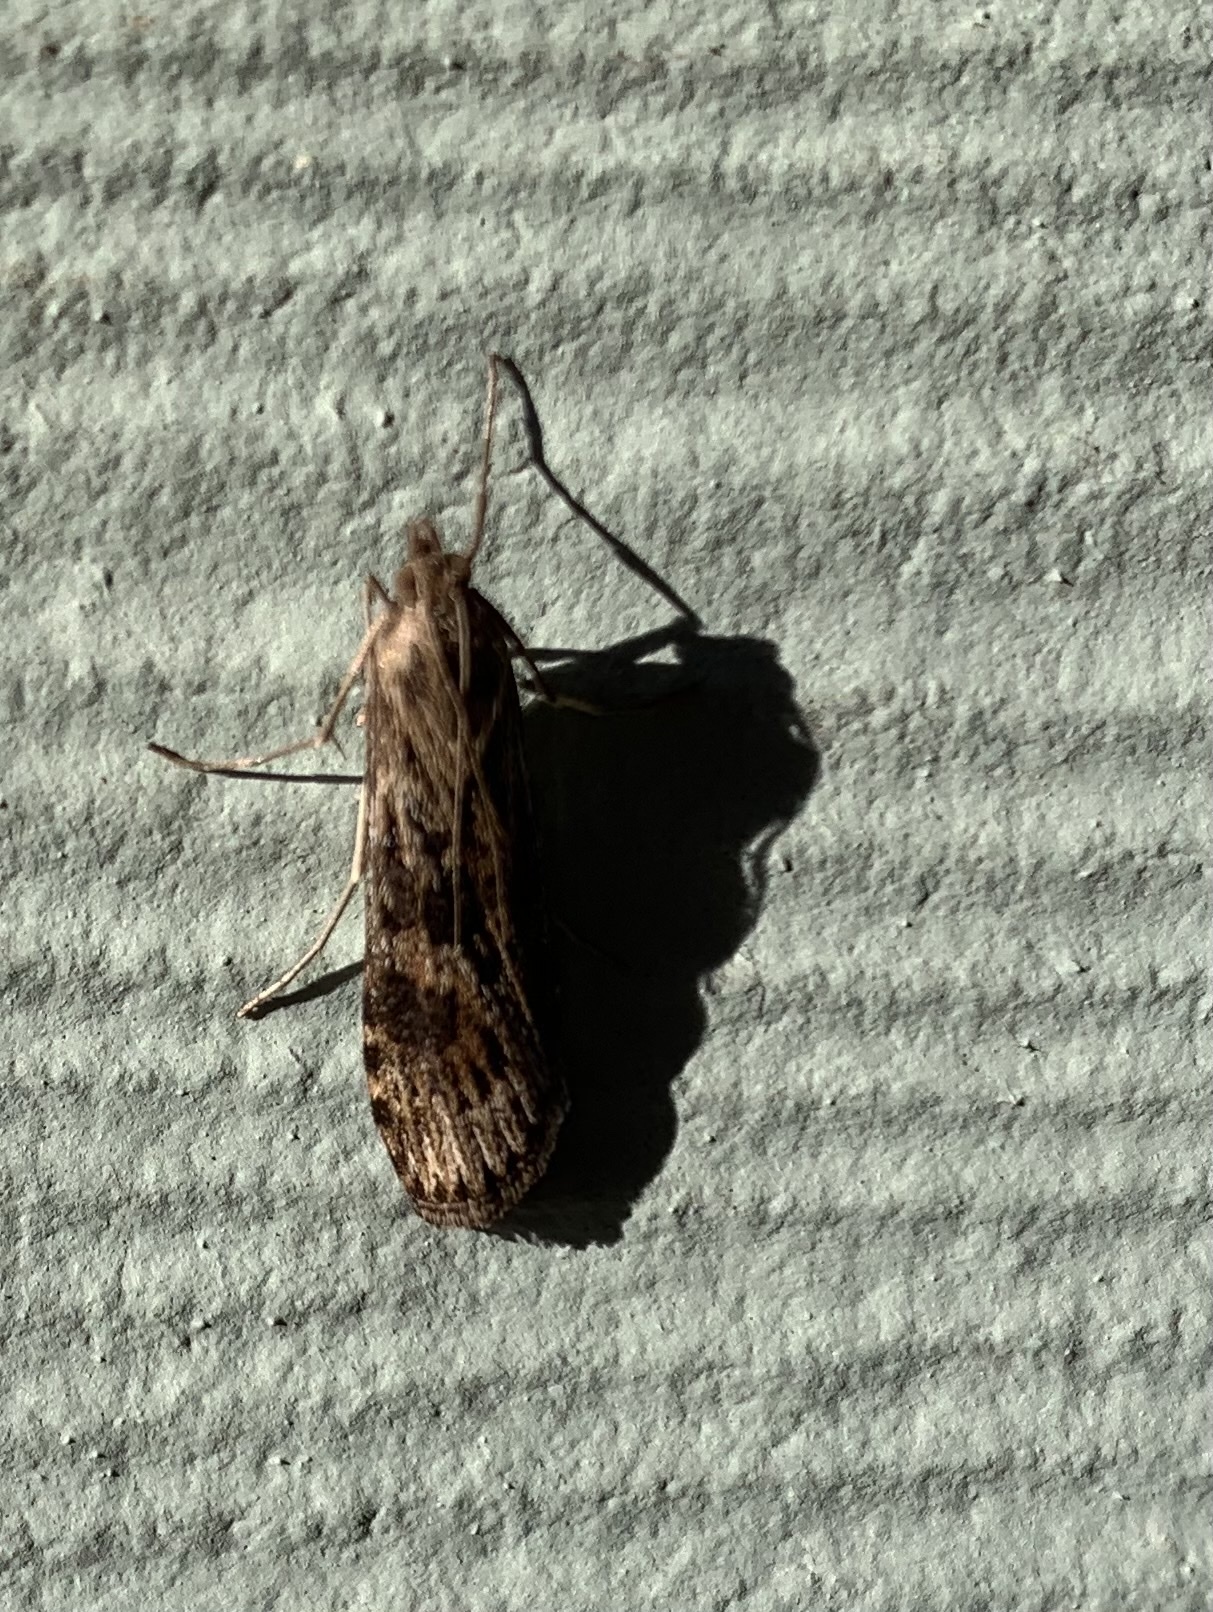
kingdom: Animalia
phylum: Arthropoda
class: Insecta
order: Lepidoptera
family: Crambidae
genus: Nomophila
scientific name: Nomophila nearctica
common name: American rush veneer
